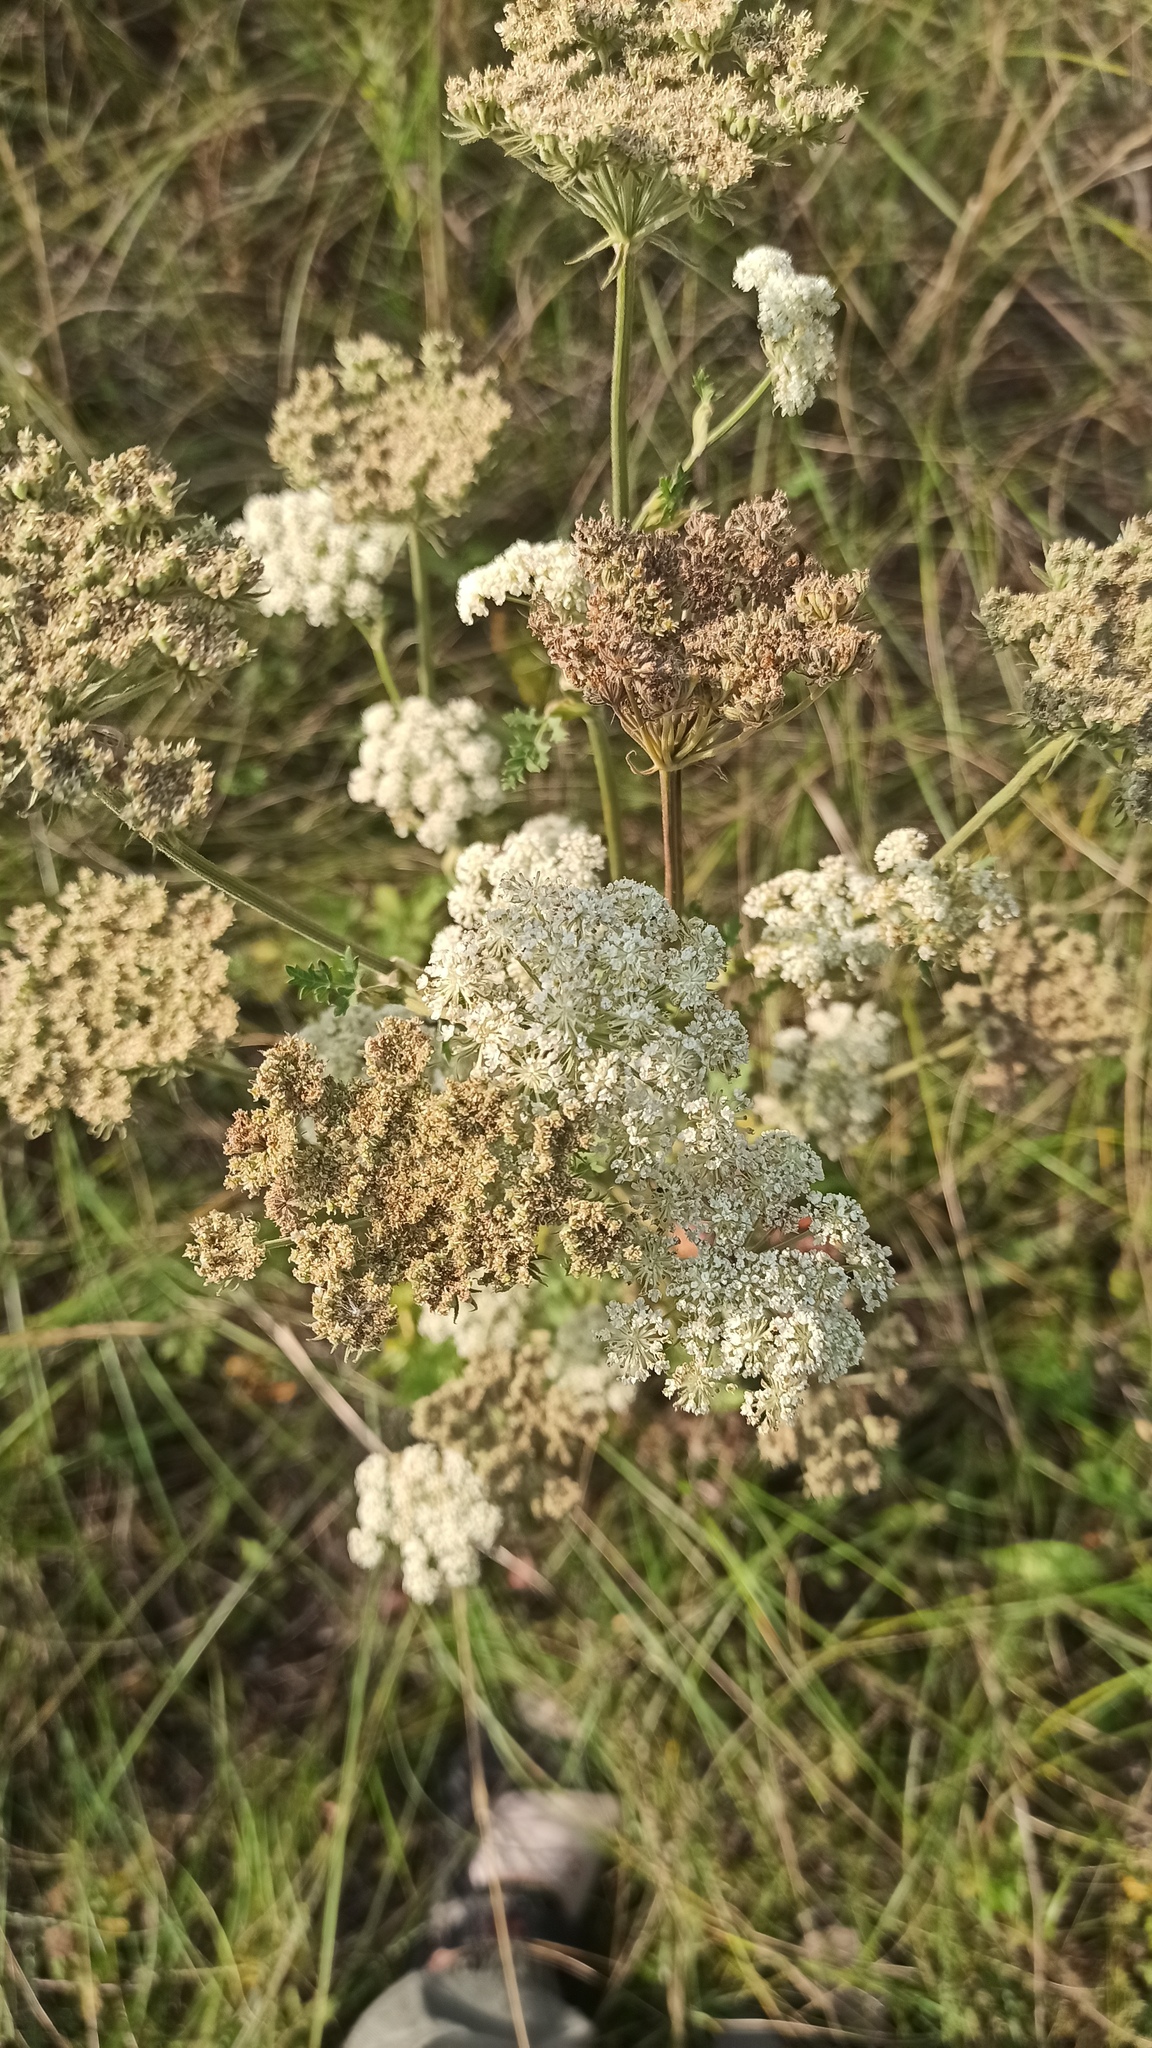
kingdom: Plantae
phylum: Tracheophyta
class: Magnoliopsida
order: Apiales
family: Apiaceae
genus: Seseli
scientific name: Seseli libanotis
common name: Mooncarrot
